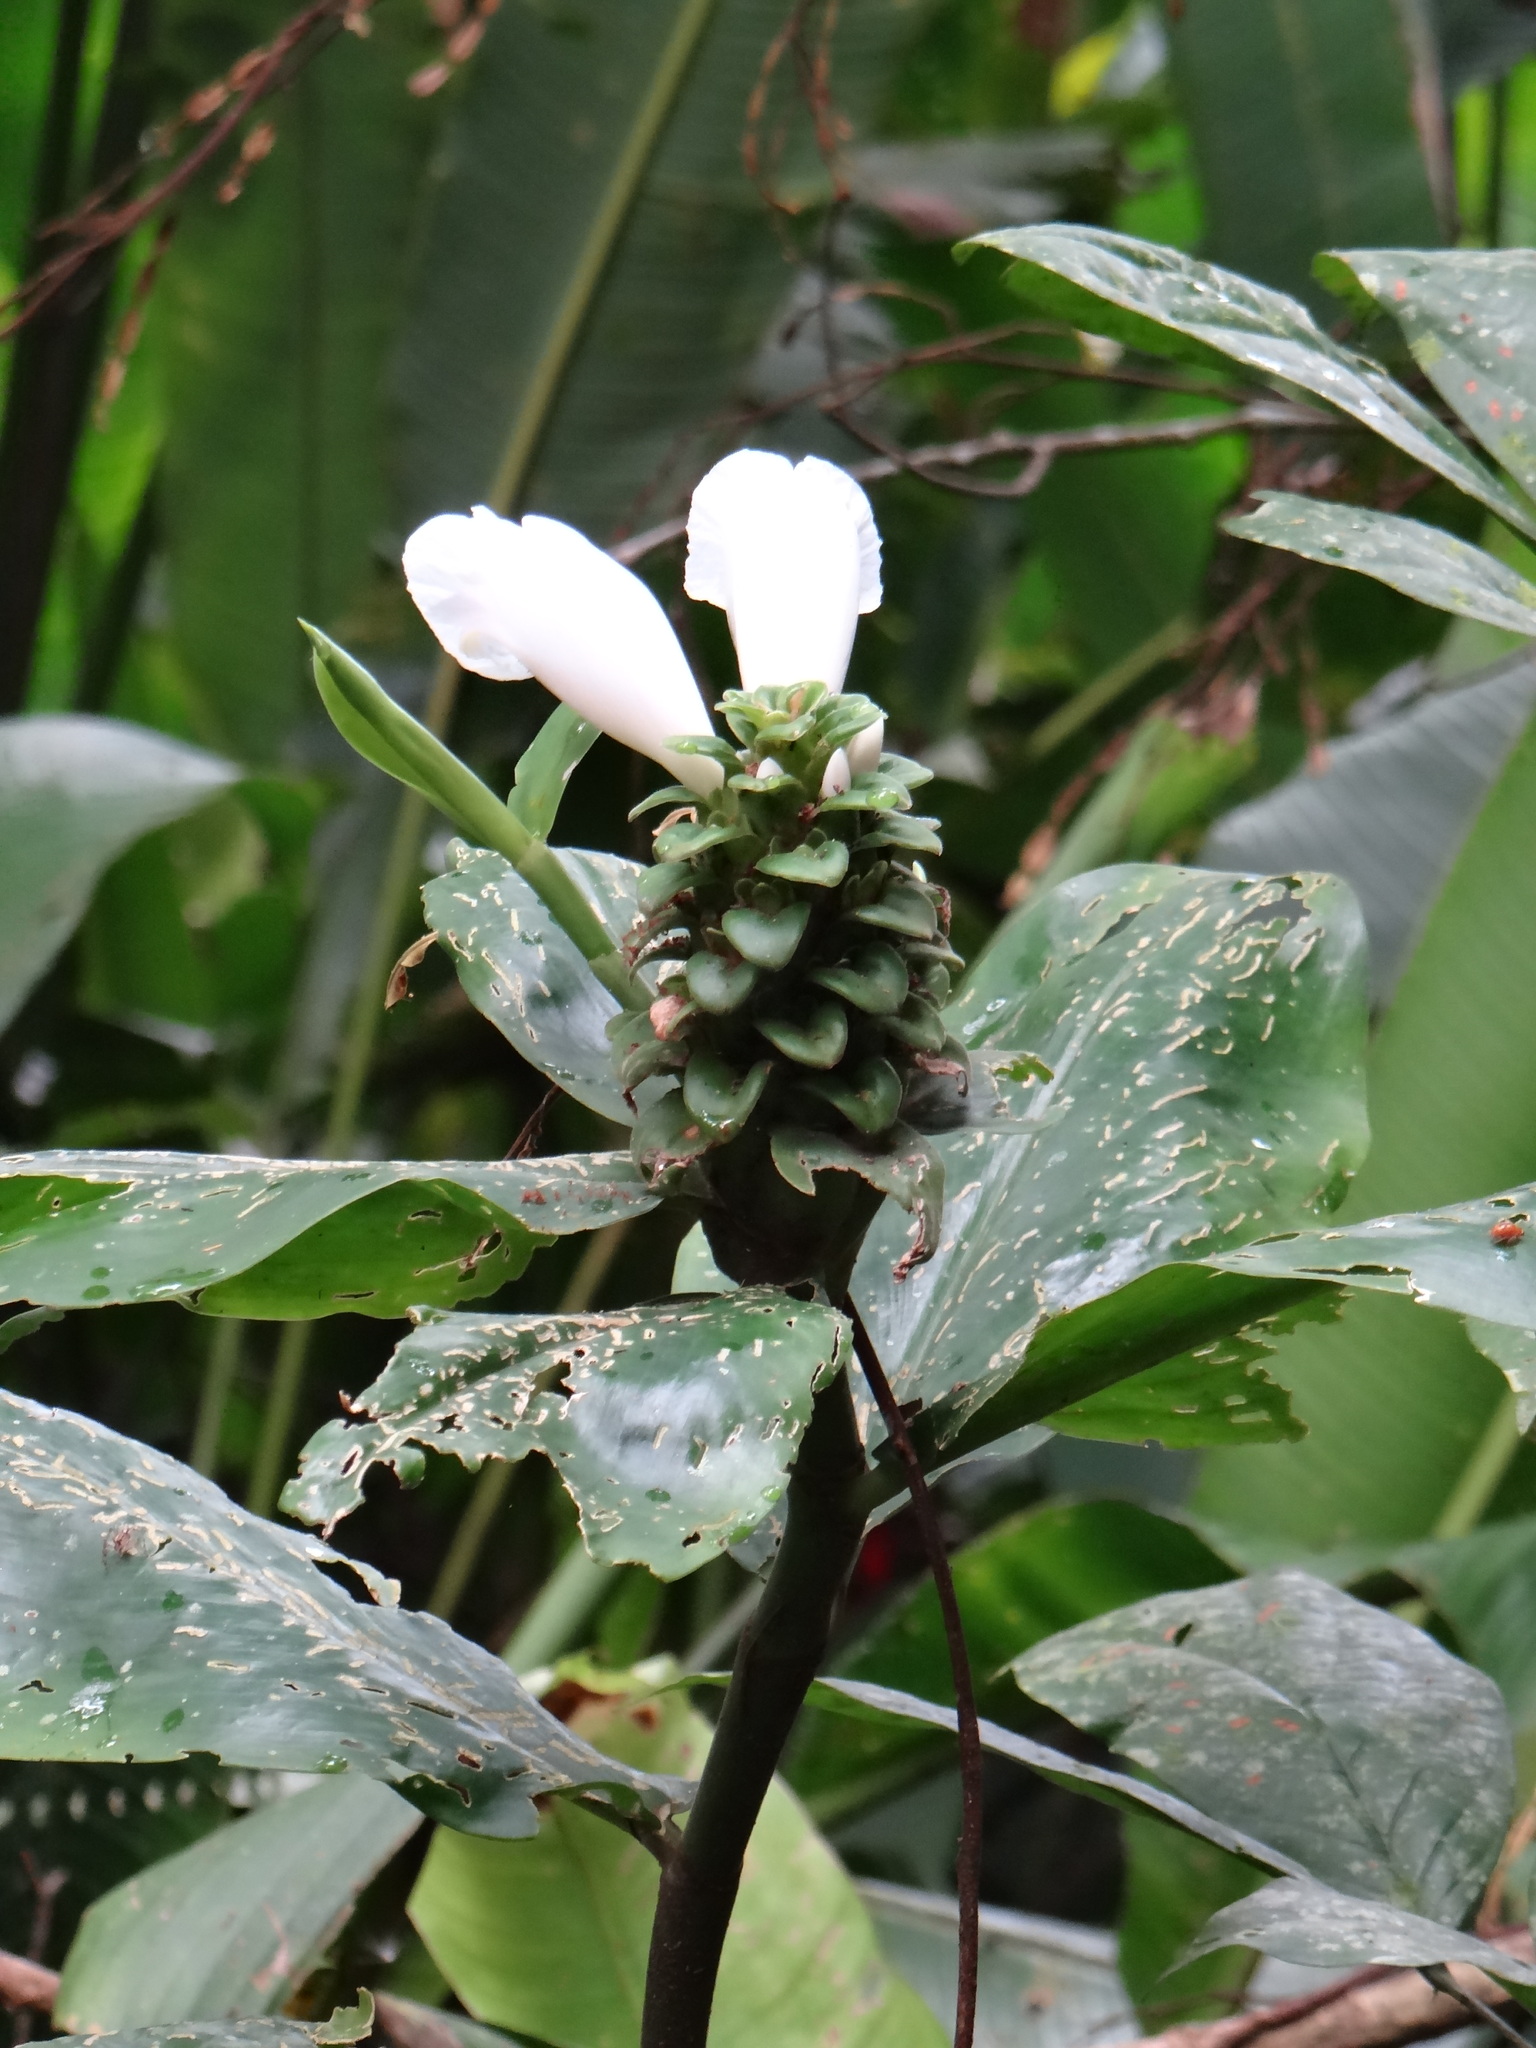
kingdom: Plantae
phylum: Tracheophyta
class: Liliopsida
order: Zingiberales
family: Costaceae
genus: Costus
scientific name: Costus arabicus
